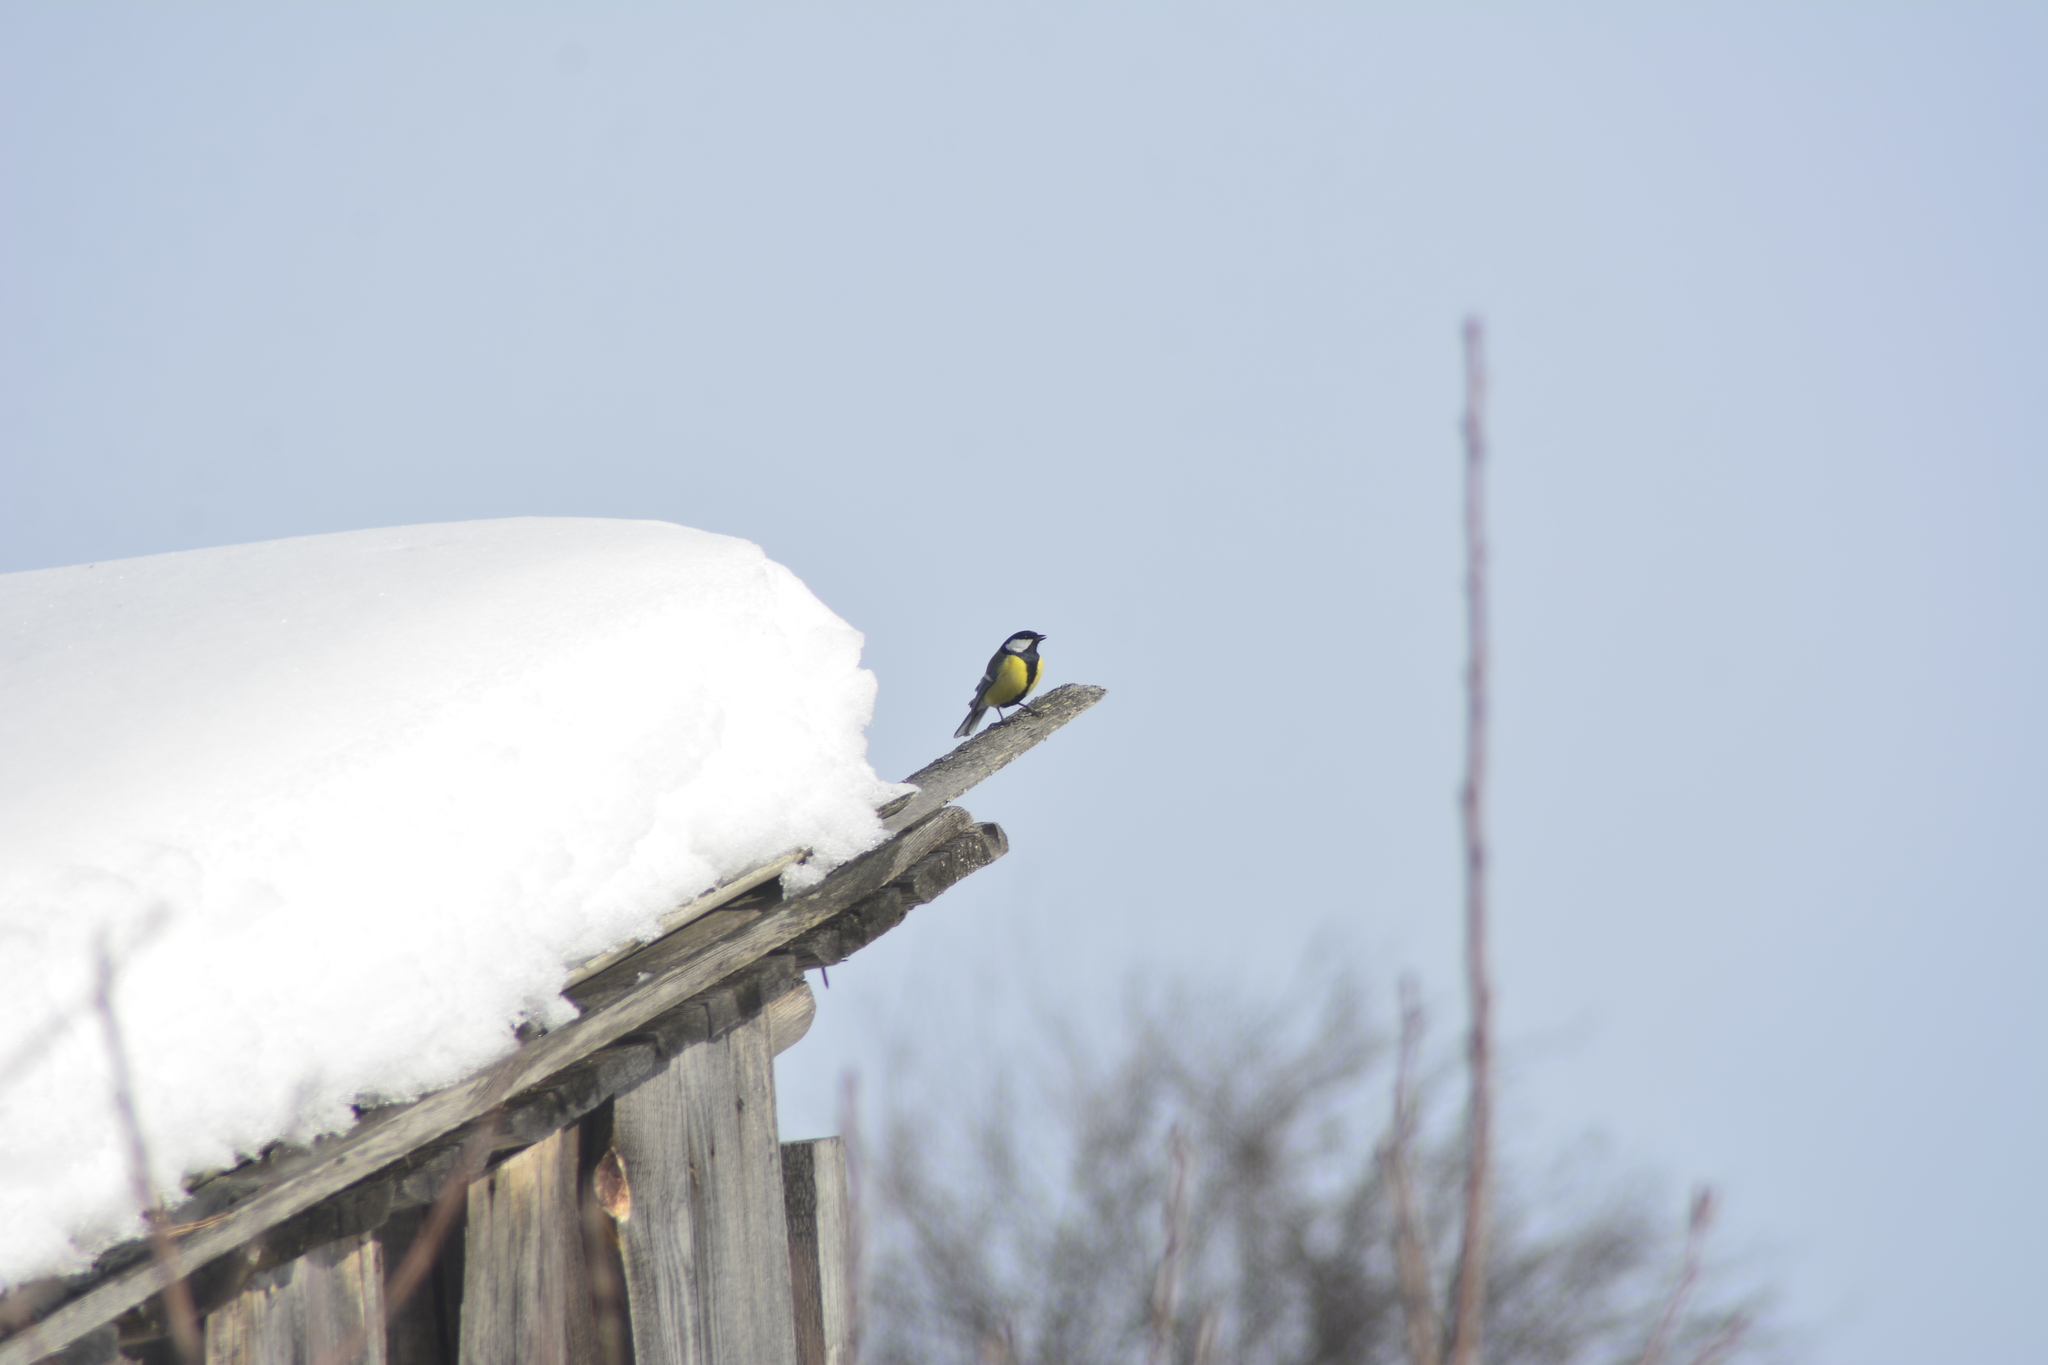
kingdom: Animalia
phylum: Chordata
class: Aves
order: Passeriformes
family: Paridae
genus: Parus
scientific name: Parus major
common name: Great tit
